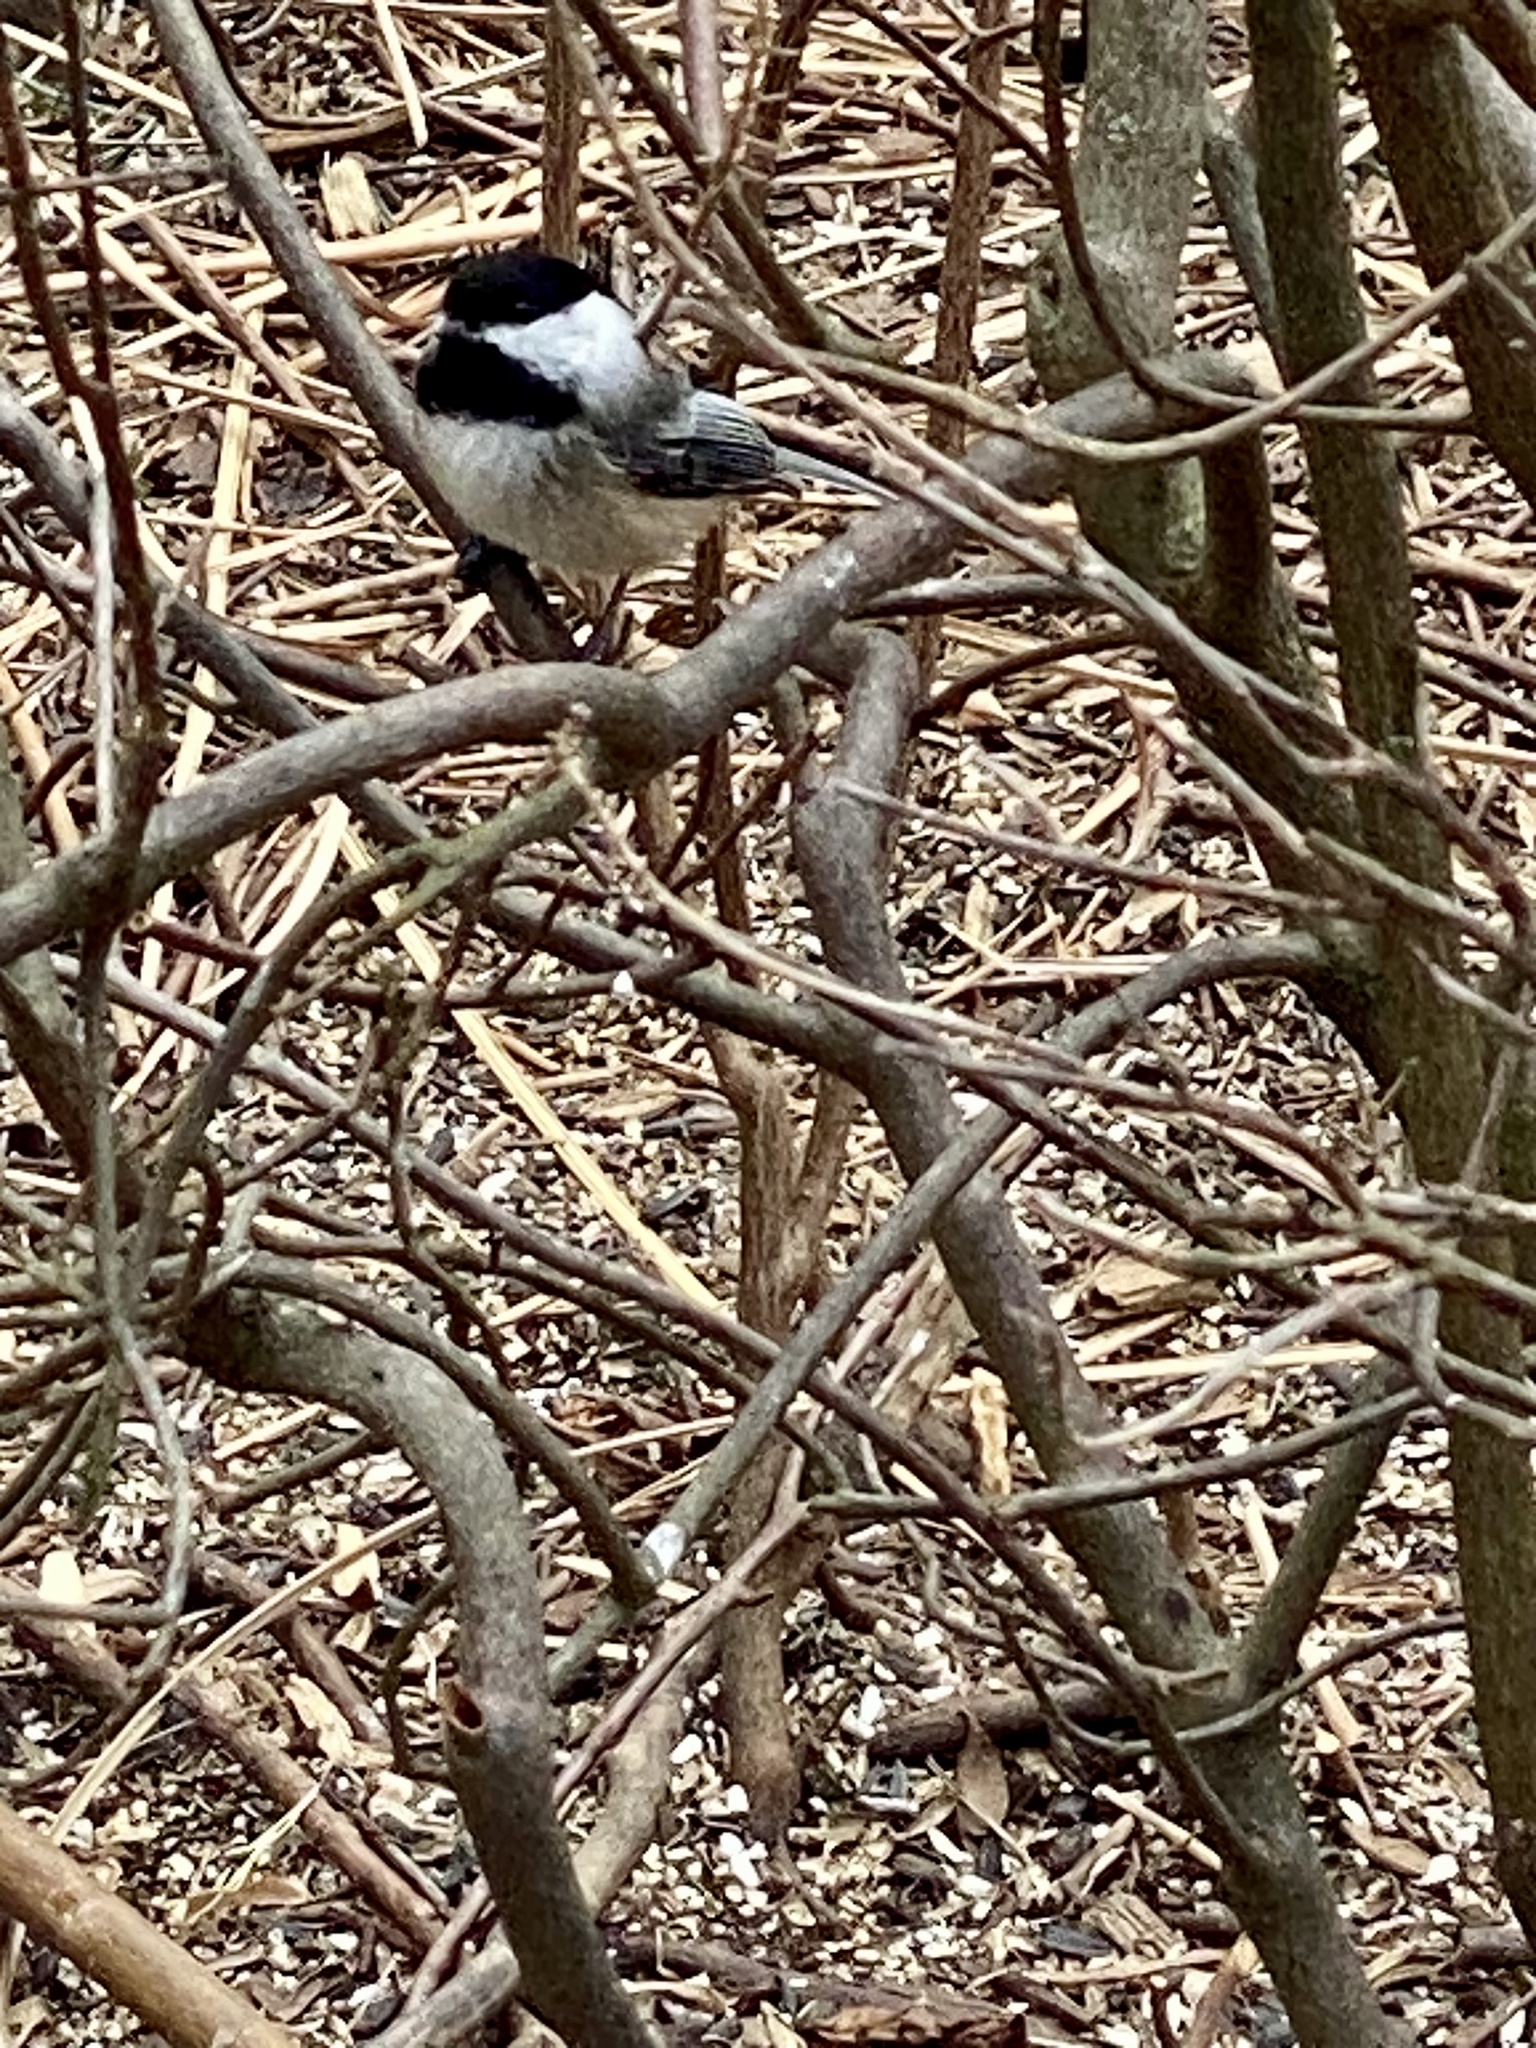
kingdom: Animalia
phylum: Chordata
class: Aves
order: Passeriformes
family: Paridae
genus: Poecile
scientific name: Poecile atricapillus
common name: Black-capped chickadee
